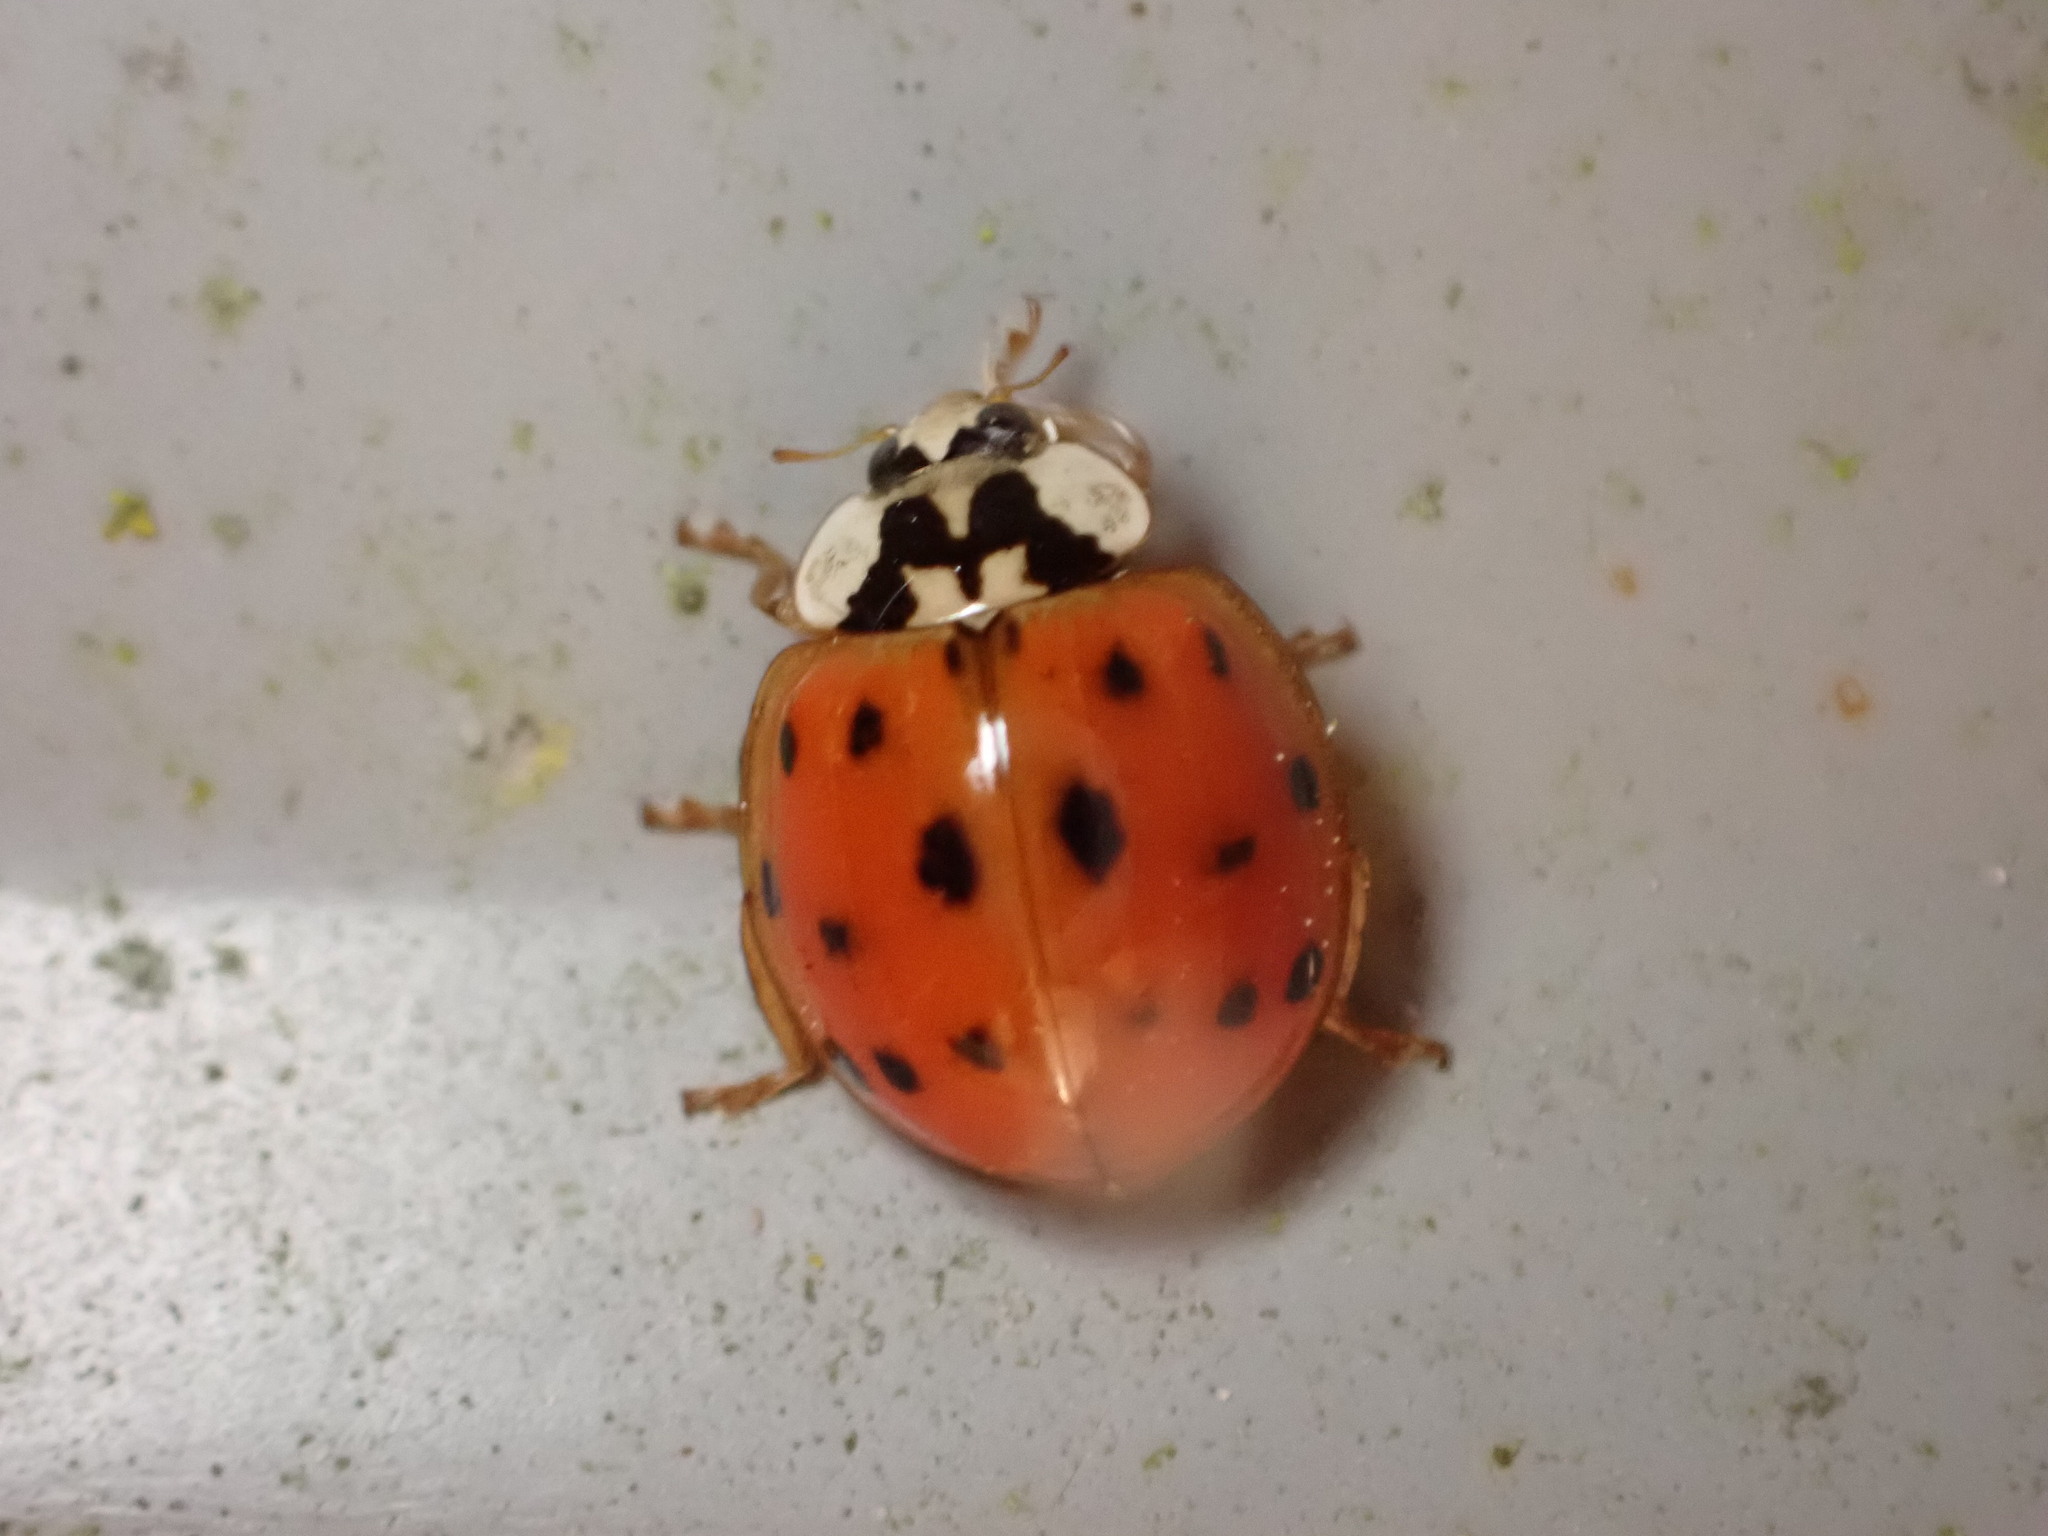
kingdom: Animalia
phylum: Arthropoda
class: Insecta
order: Coleoptera
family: Coccinellidae
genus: Harmonia
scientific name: Harmonia axyridis
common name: Harlequin ladybird
